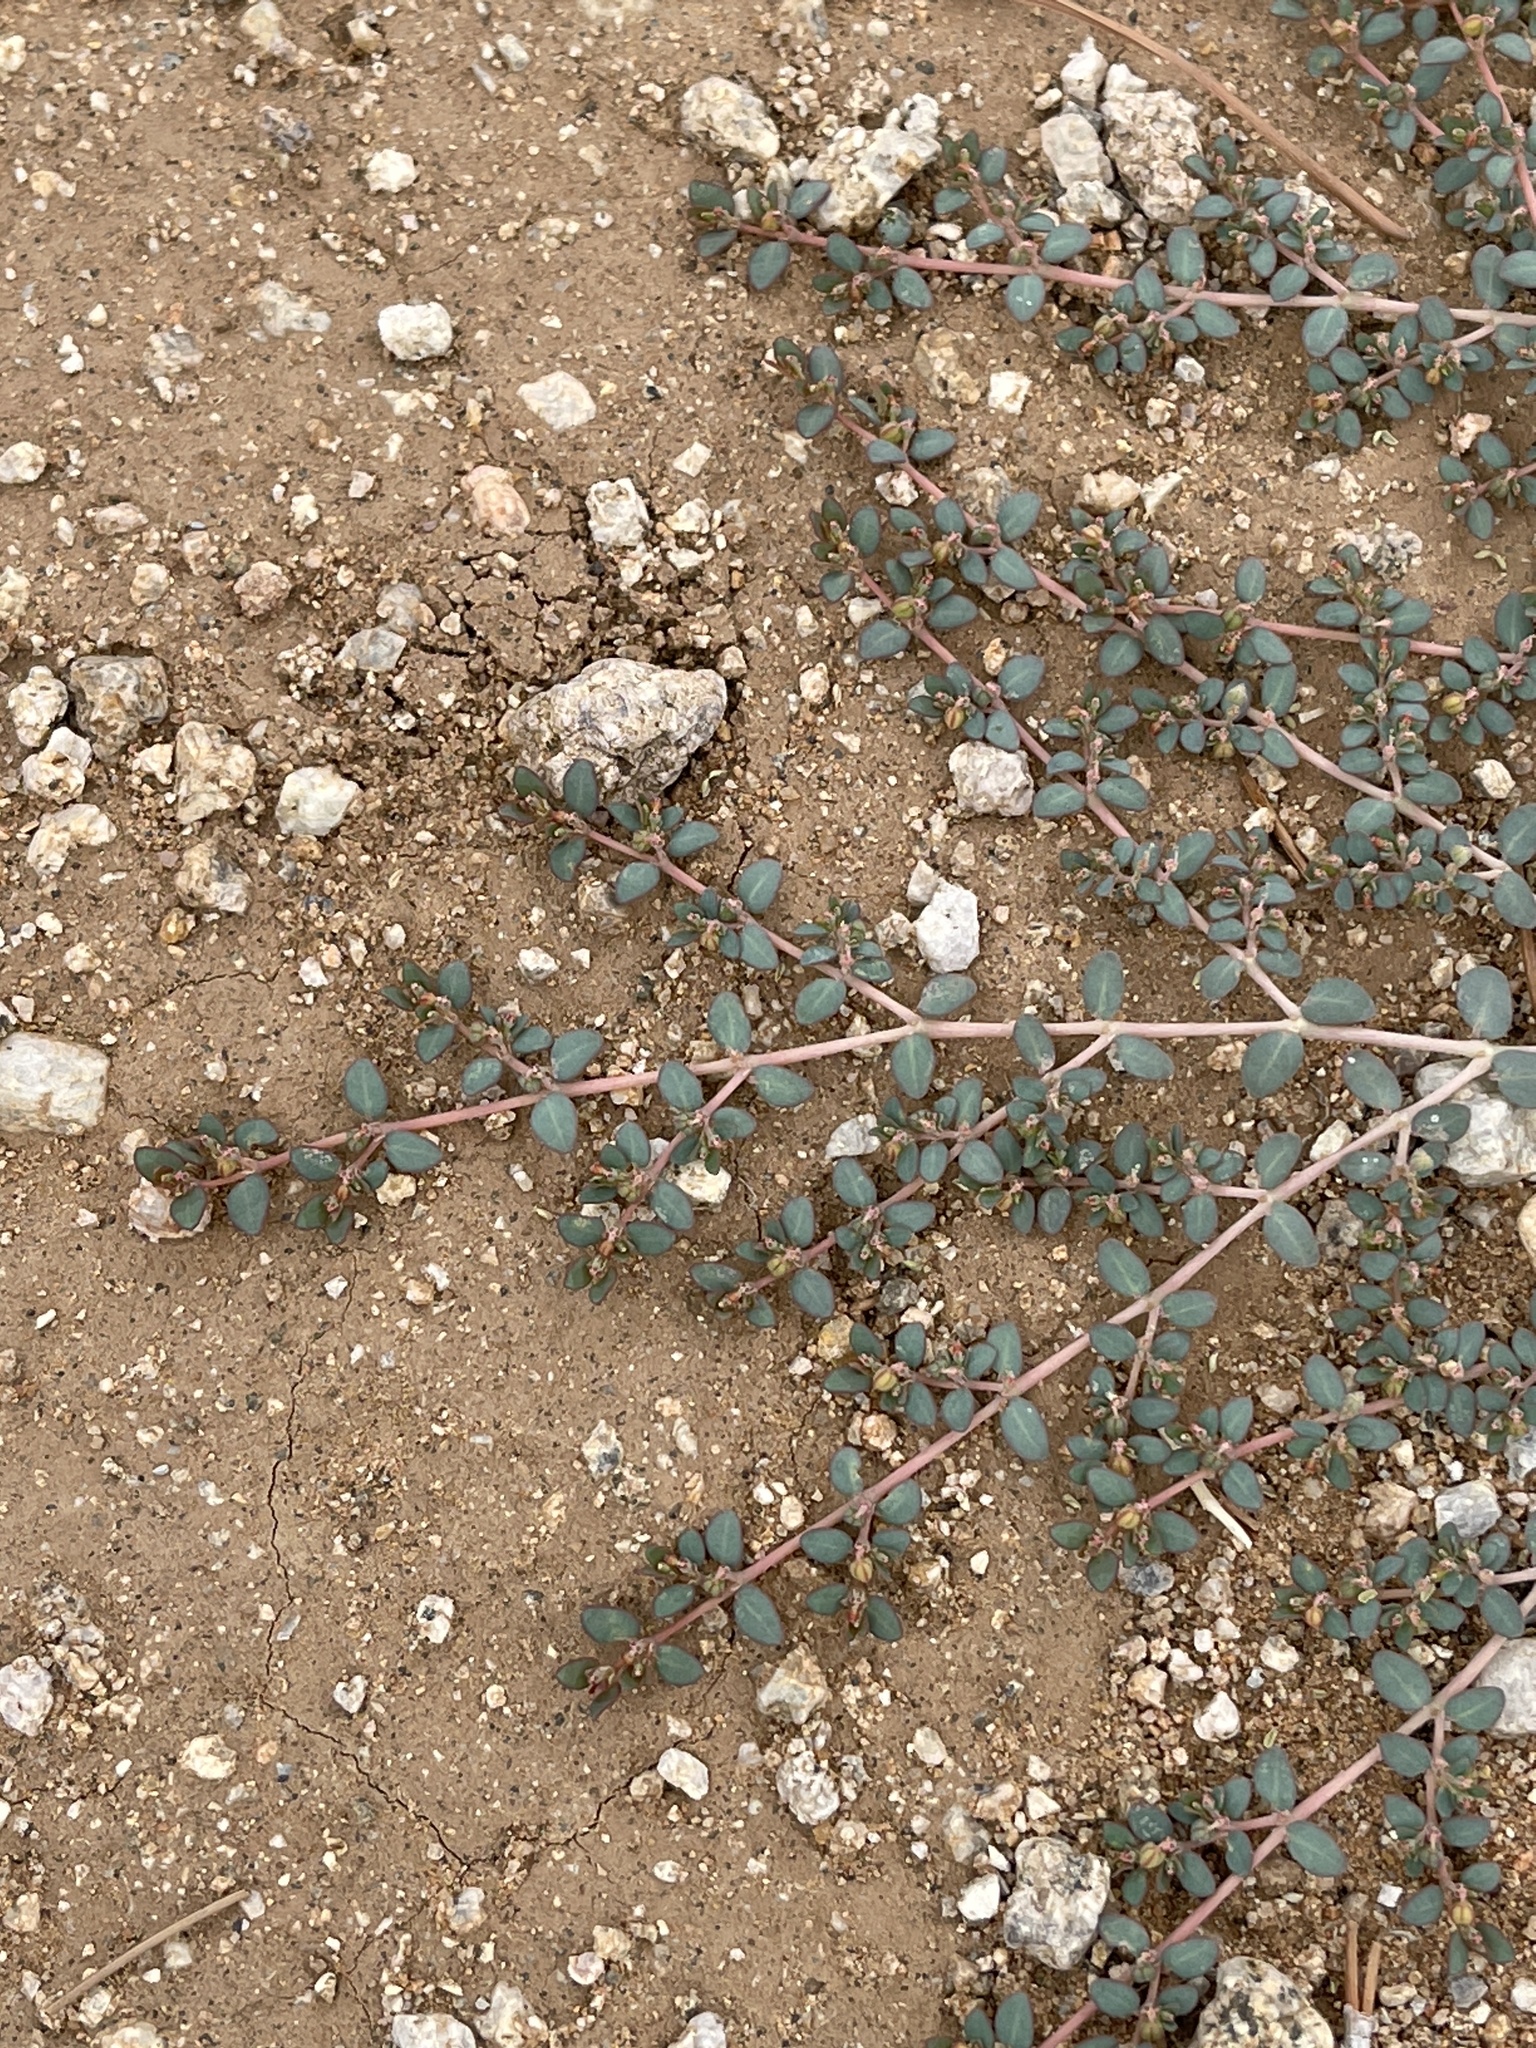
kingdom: Plantae
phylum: Tracheophyta
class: Magnoliopsida
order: Malpighiales
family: Euphorbiaceae
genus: Euphorbia
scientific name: Euphorbia micromera
